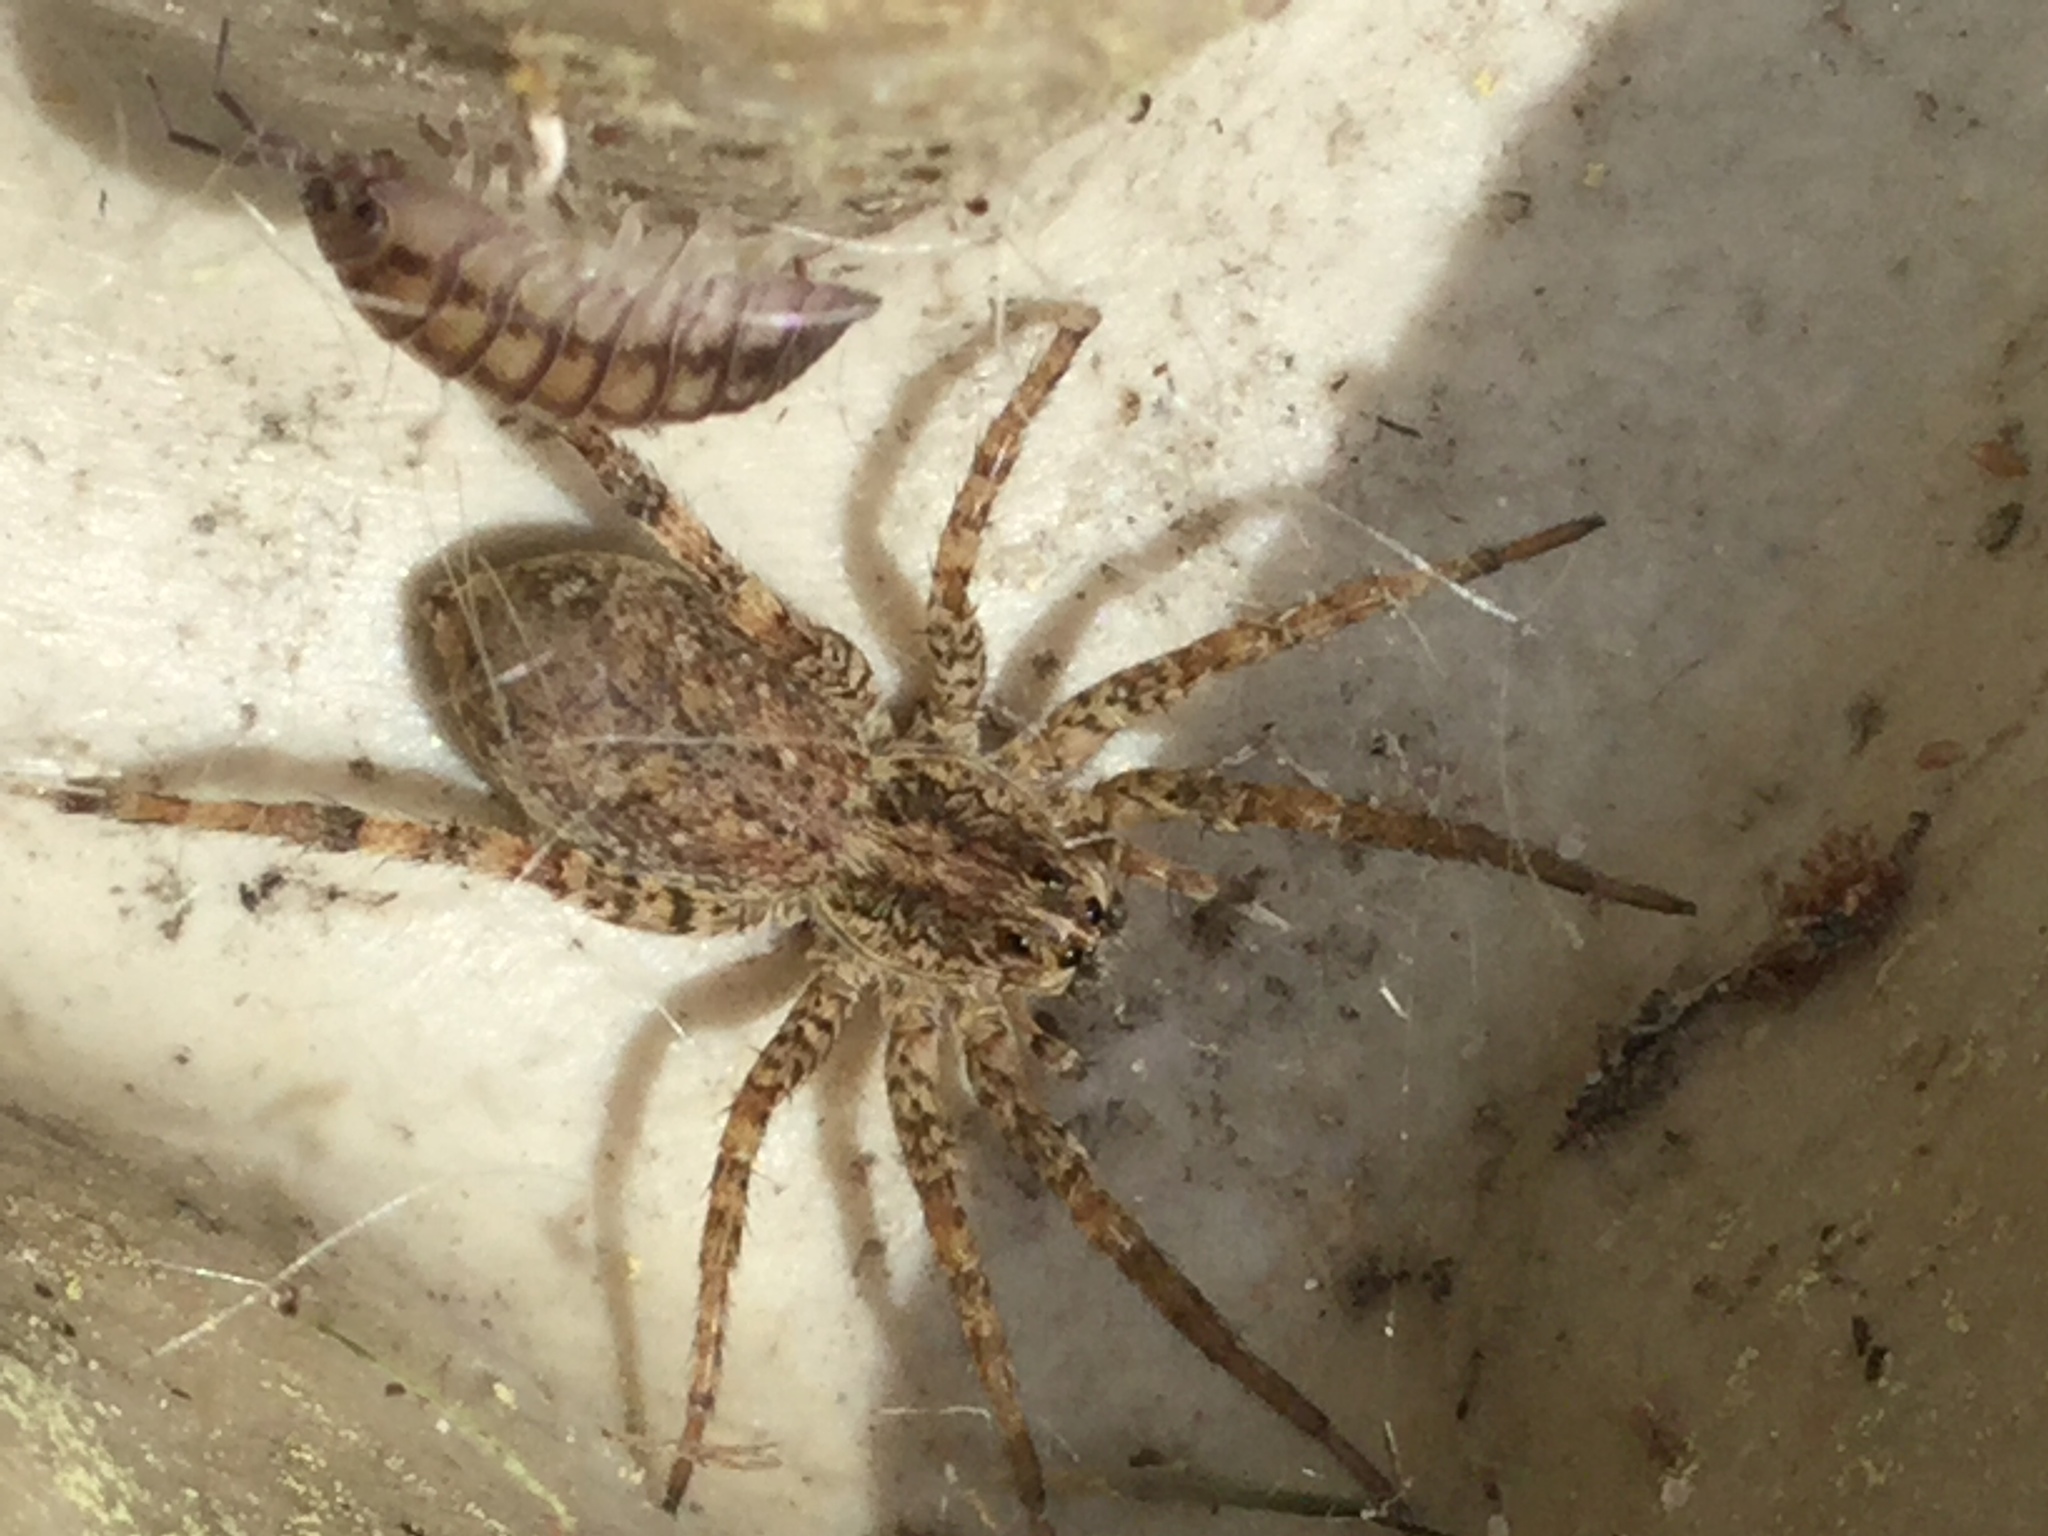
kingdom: Animalia
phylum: Arthropoda
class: Arachnida
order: Araneae
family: Lycosidae
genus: Hogna
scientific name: Hogna antelucana
